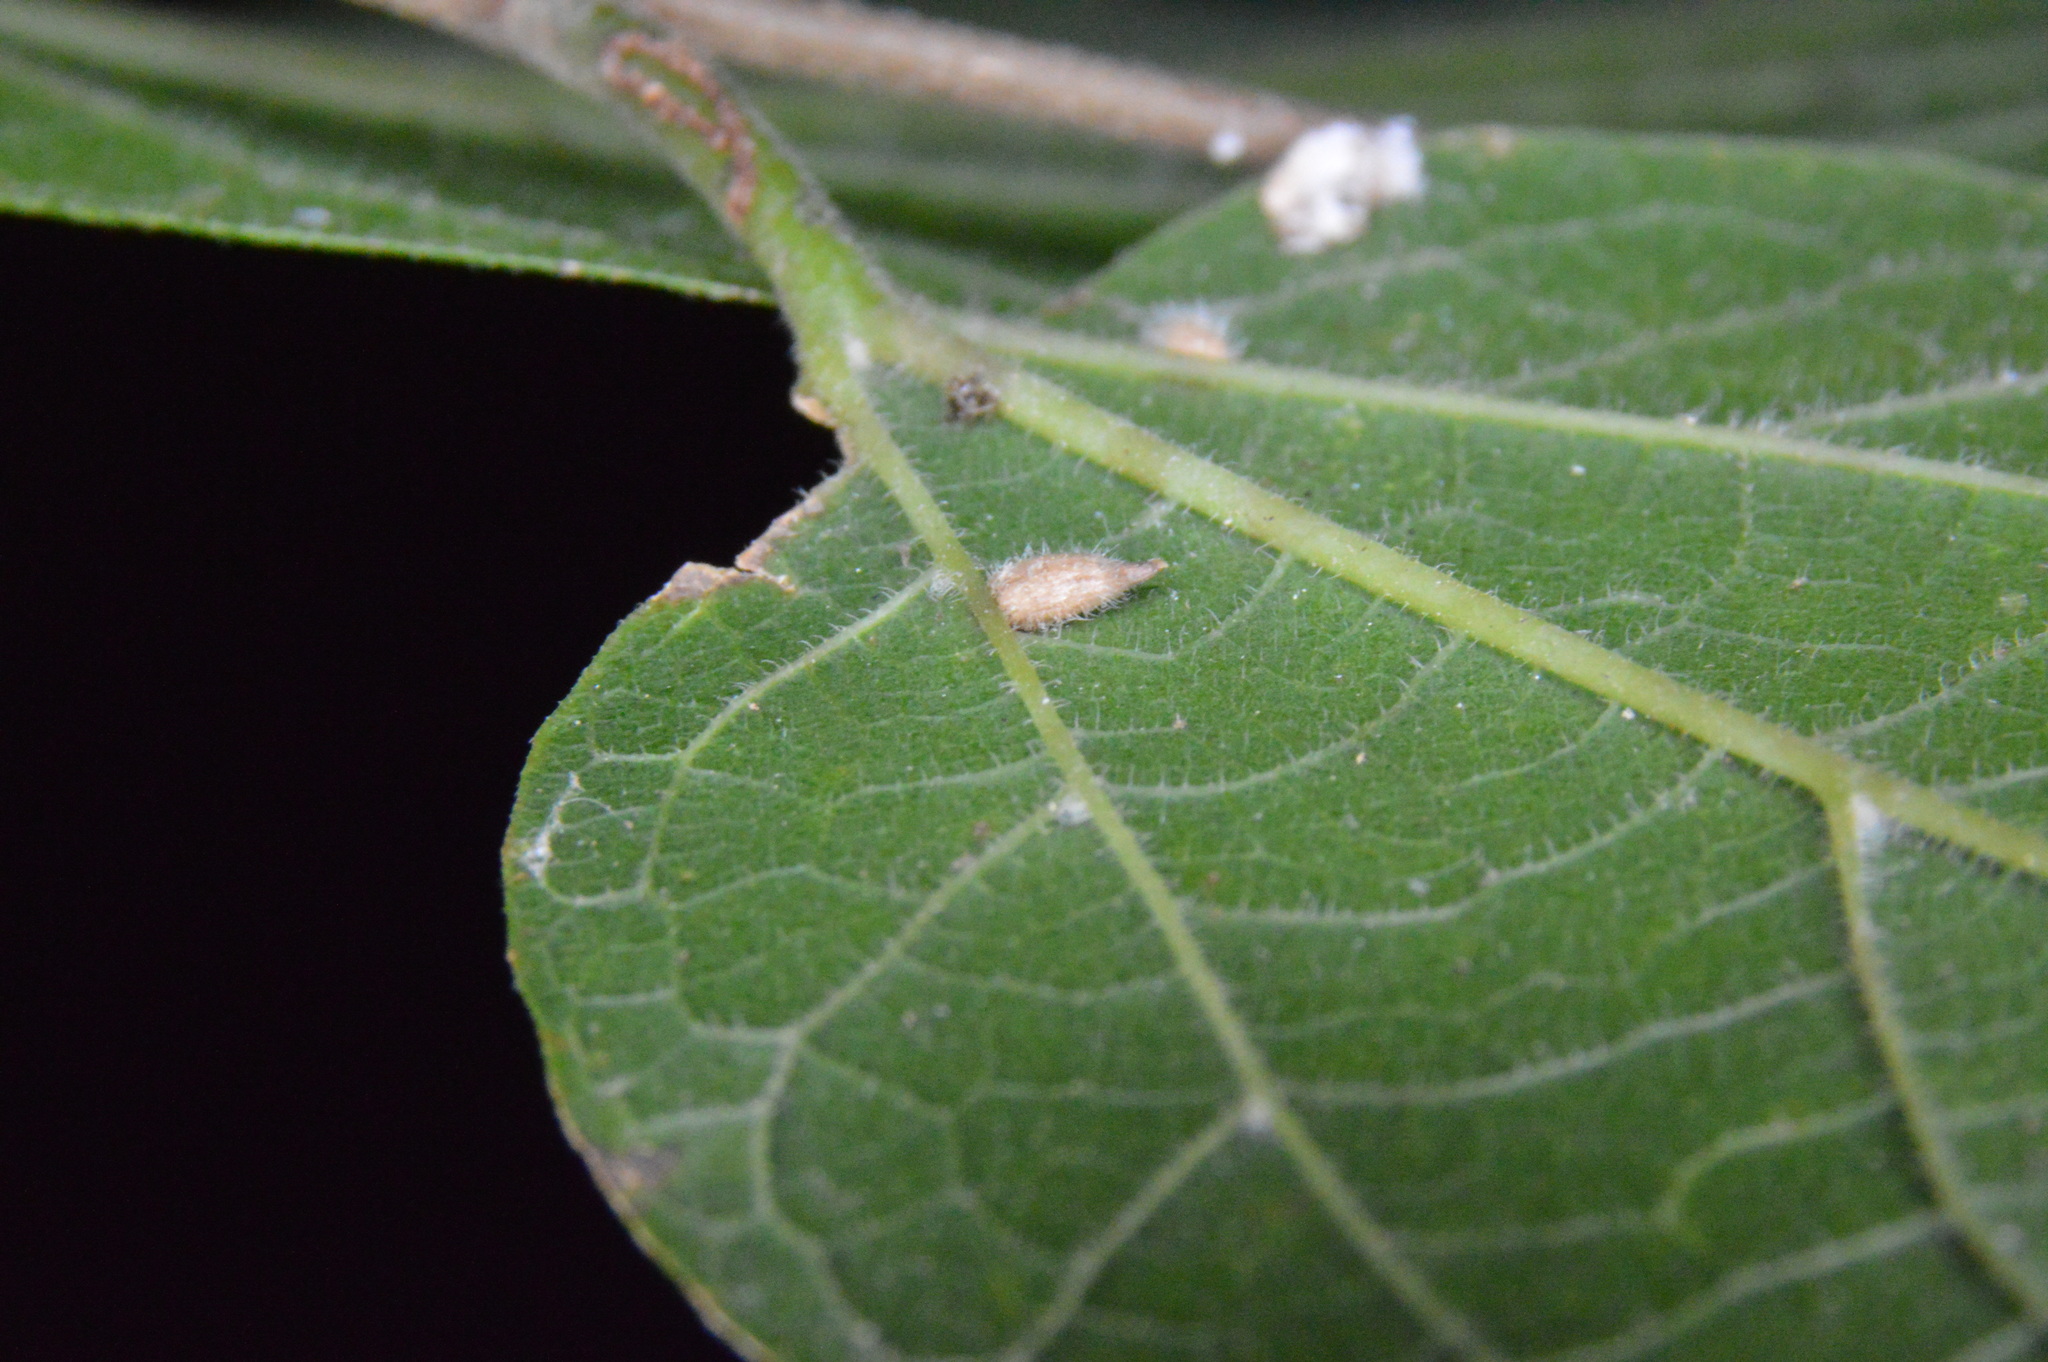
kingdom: Animalia
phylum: Arthropoda
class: Insecta
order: Diptera
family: Cecidomyiidae
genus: Celticecis
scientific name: Celticecis supina
